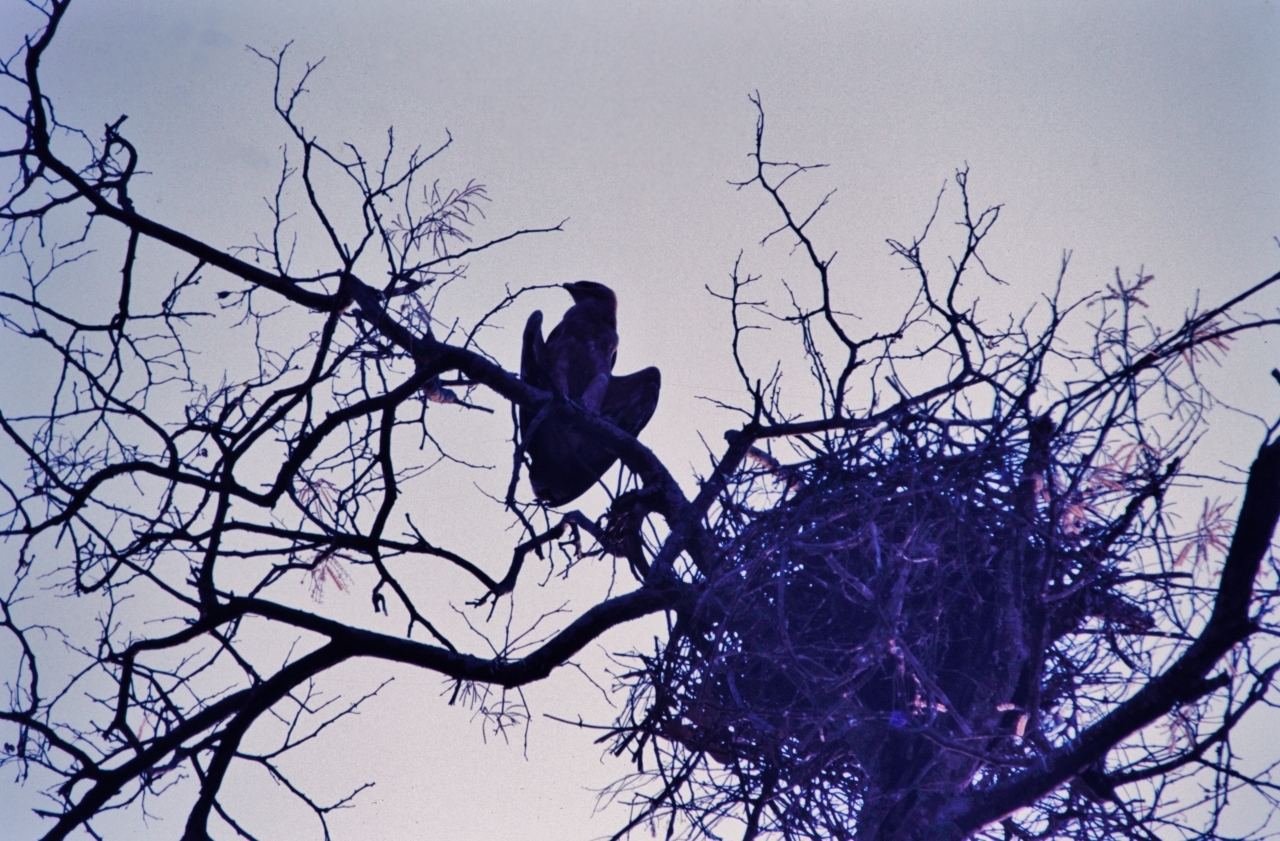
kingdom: Animalia
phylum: Chordata
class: Aves
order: Accipitriformes
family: Accipitridae
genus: Aquila
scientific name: Aquila rapax
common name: Tawny eagle
